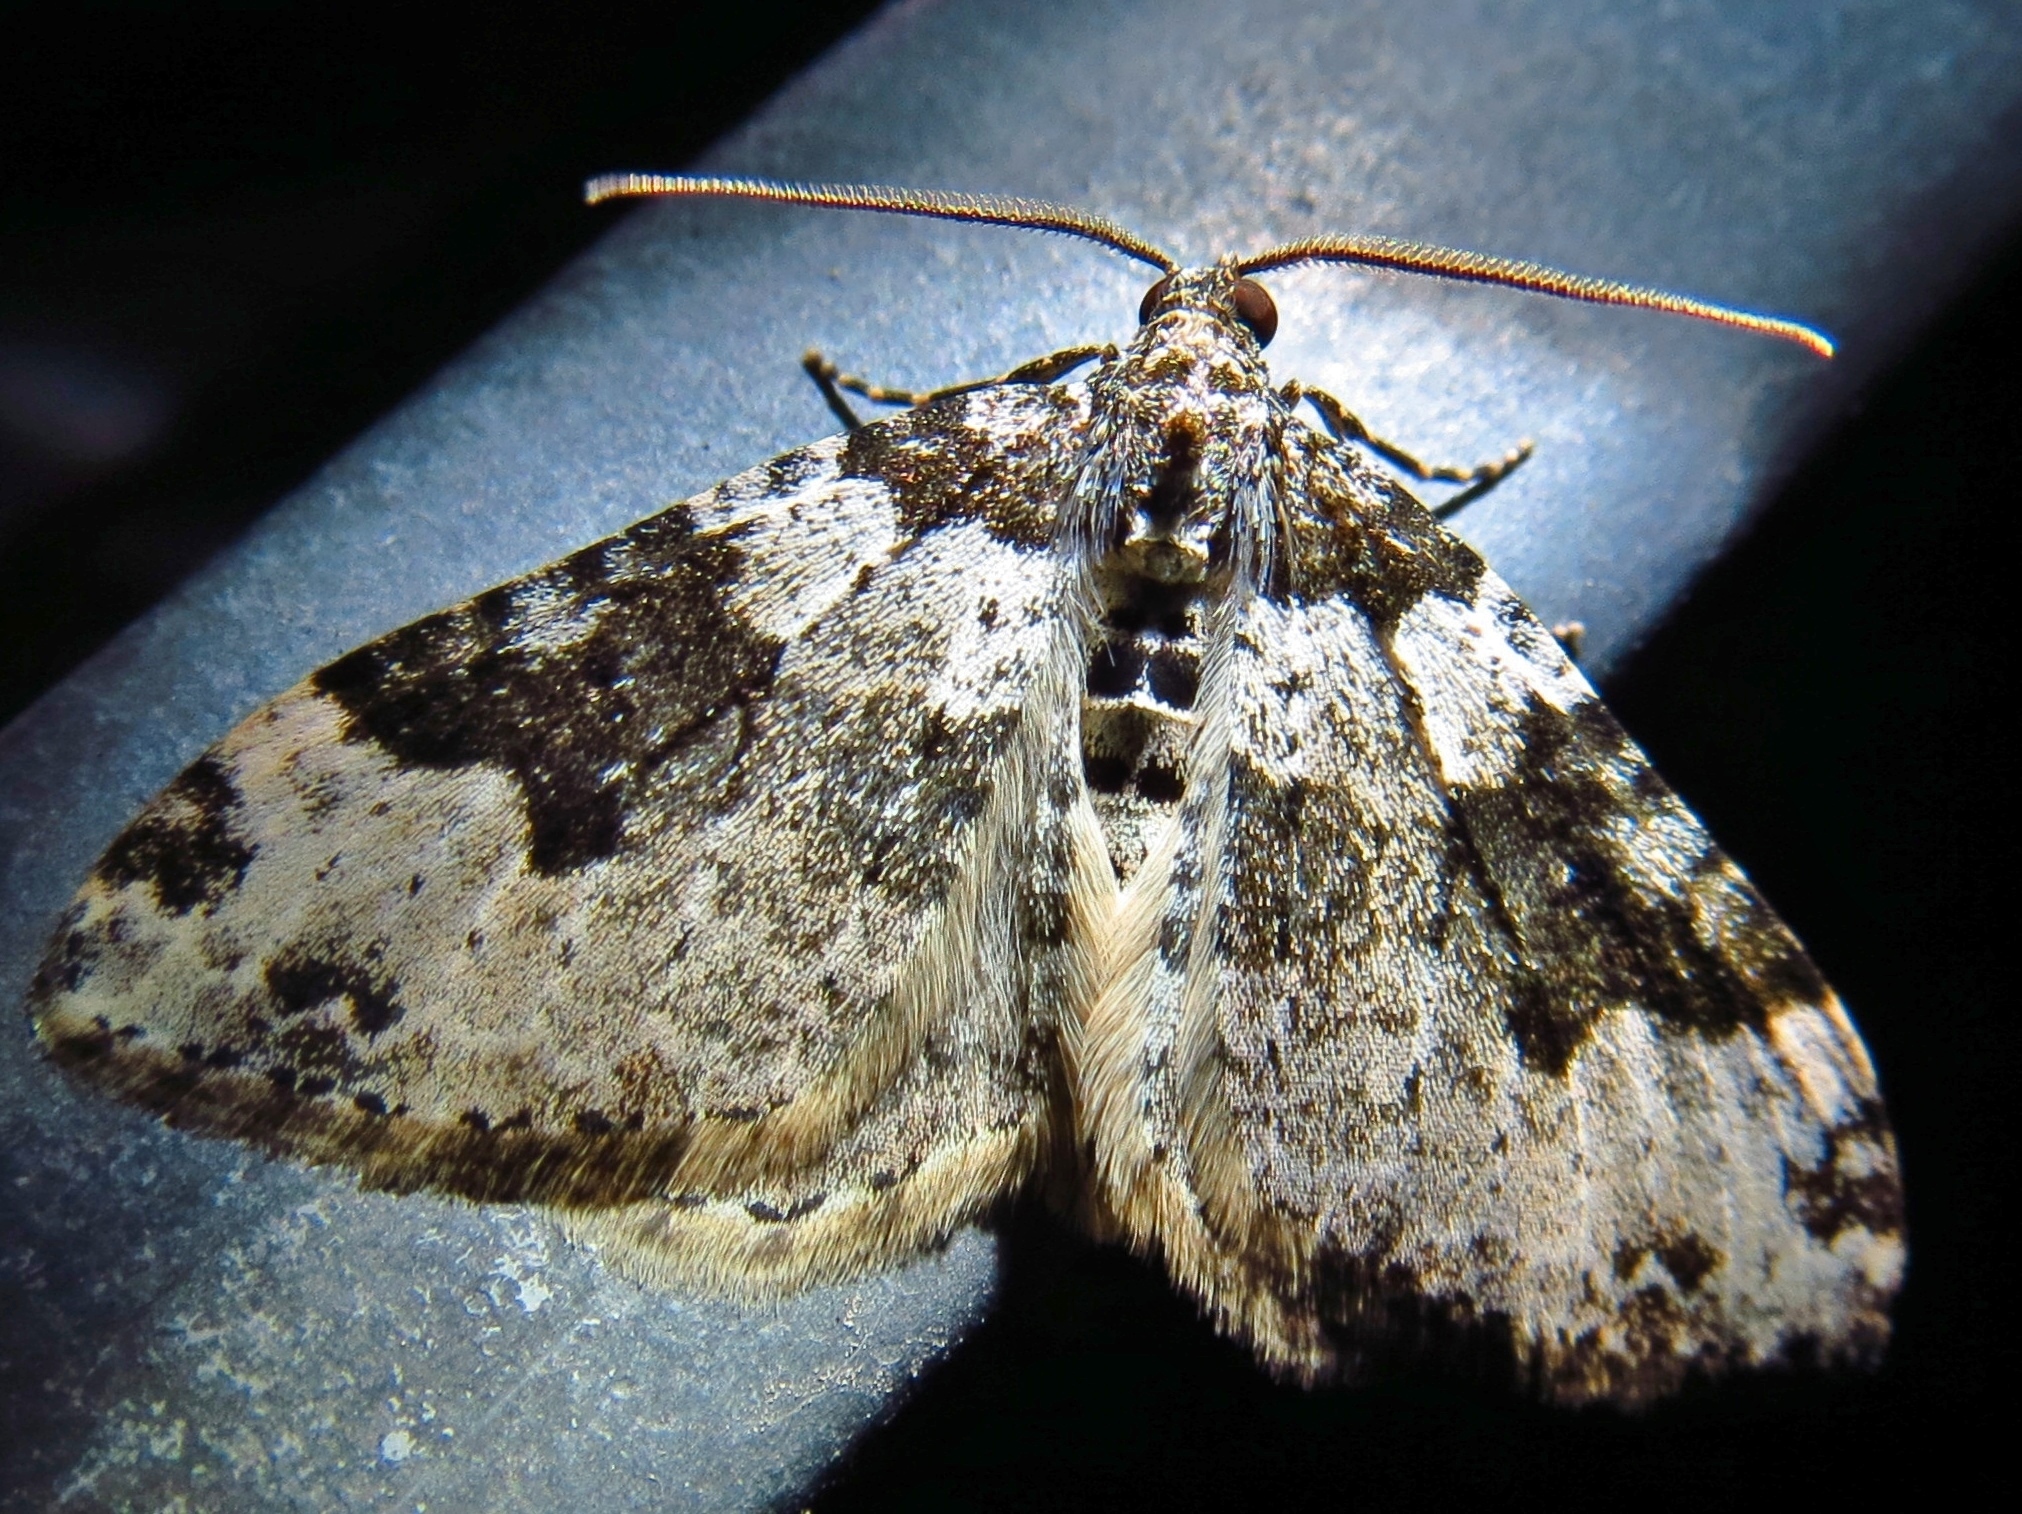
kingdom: Animalia
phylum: Arthropoda
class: Insecta
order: Lepidoptera
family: Geometridae
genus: Xanthorhoe
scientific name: Xanthorhoe fluctuata
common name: Garden carpet
